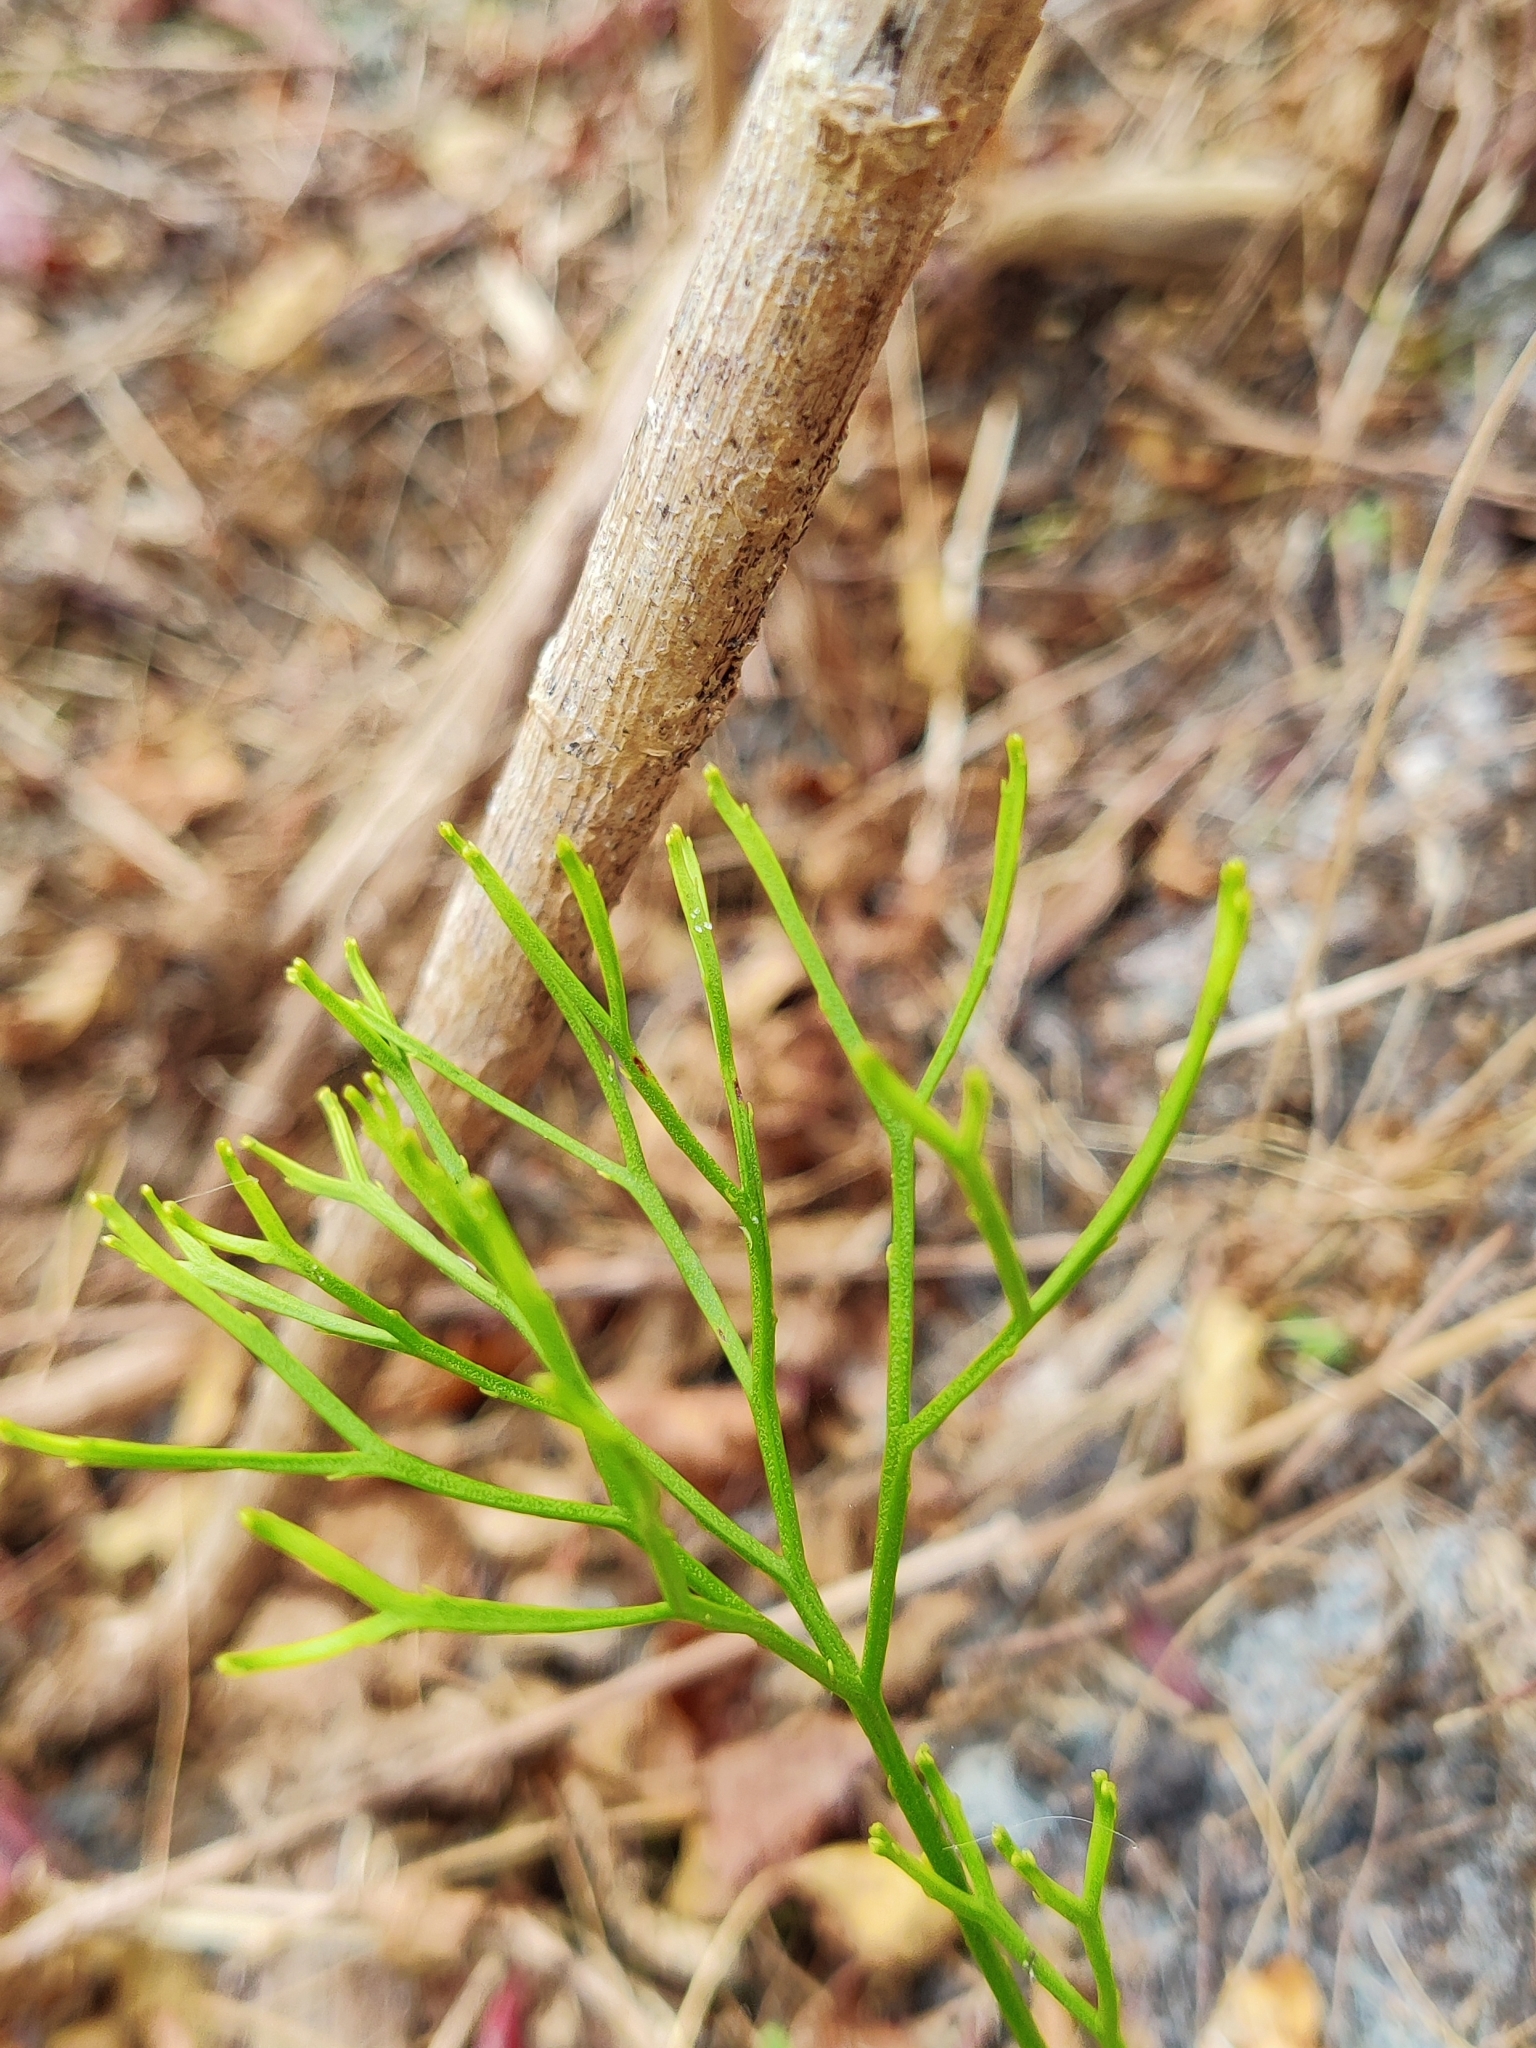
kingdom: Plantae
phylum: Tracheophyta
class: Polypodiopsida
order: Psilotales
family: Psilotaceae
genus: Psilotum
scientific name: Psilotum nudum
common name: Skeleton fork fern
